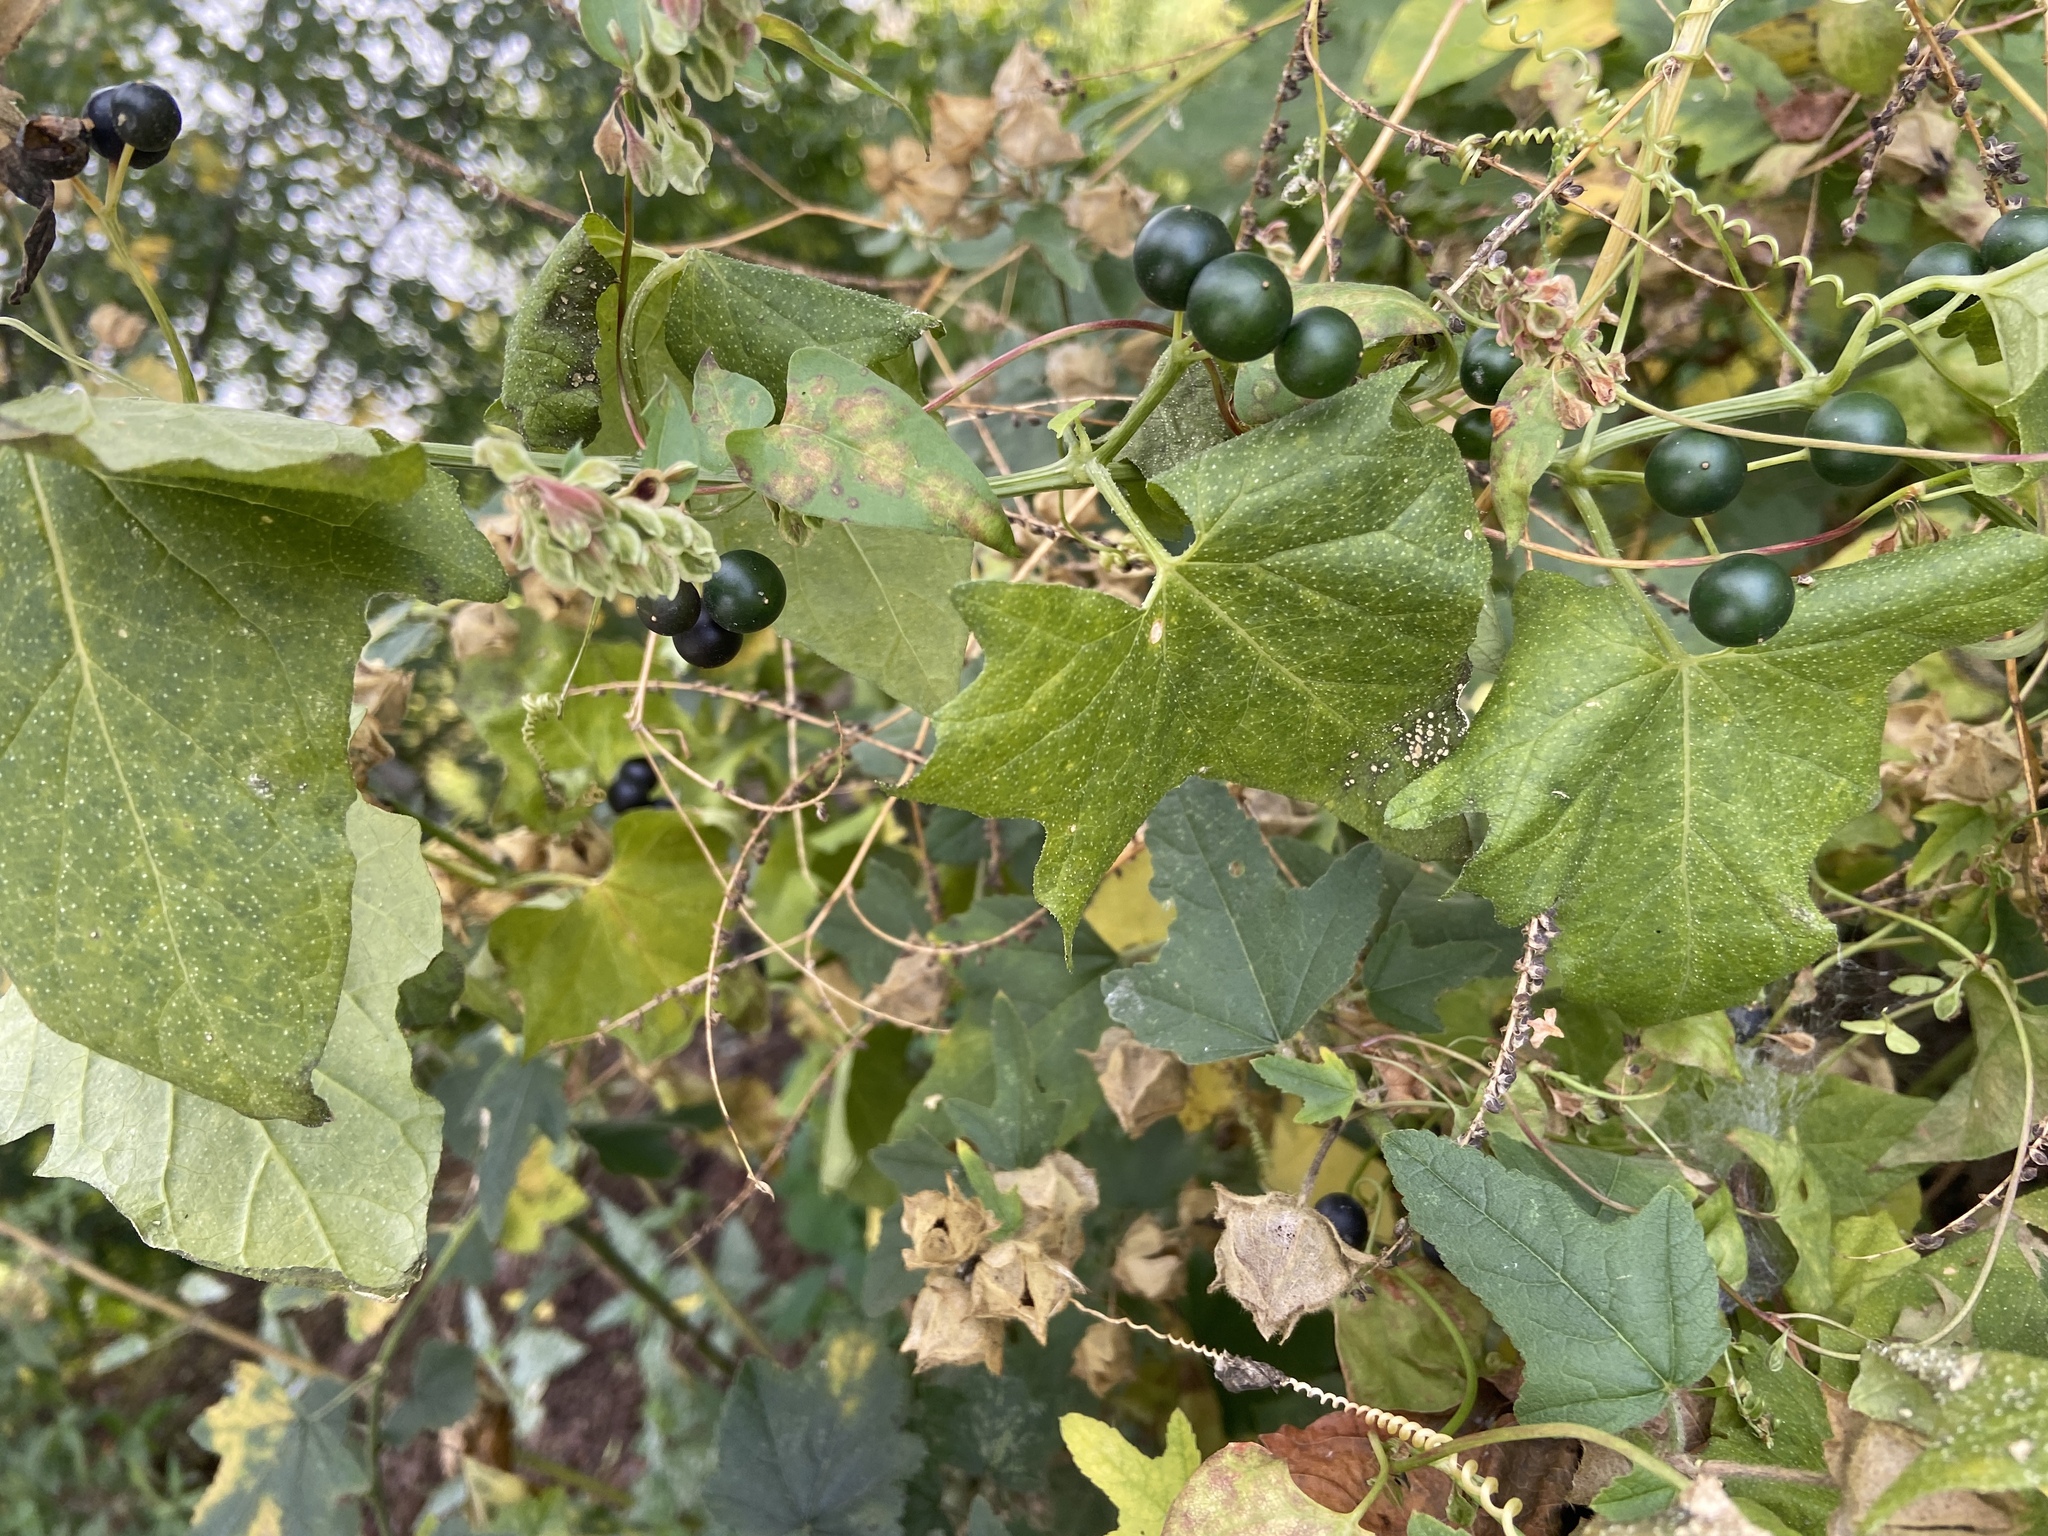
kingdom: Plantae
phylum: Tracheophyta
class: Magnoliopsida
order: Cucurbitales
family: Cucurbitaceae
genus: Bryonia
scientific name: Bryonia alba
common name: White bryony
